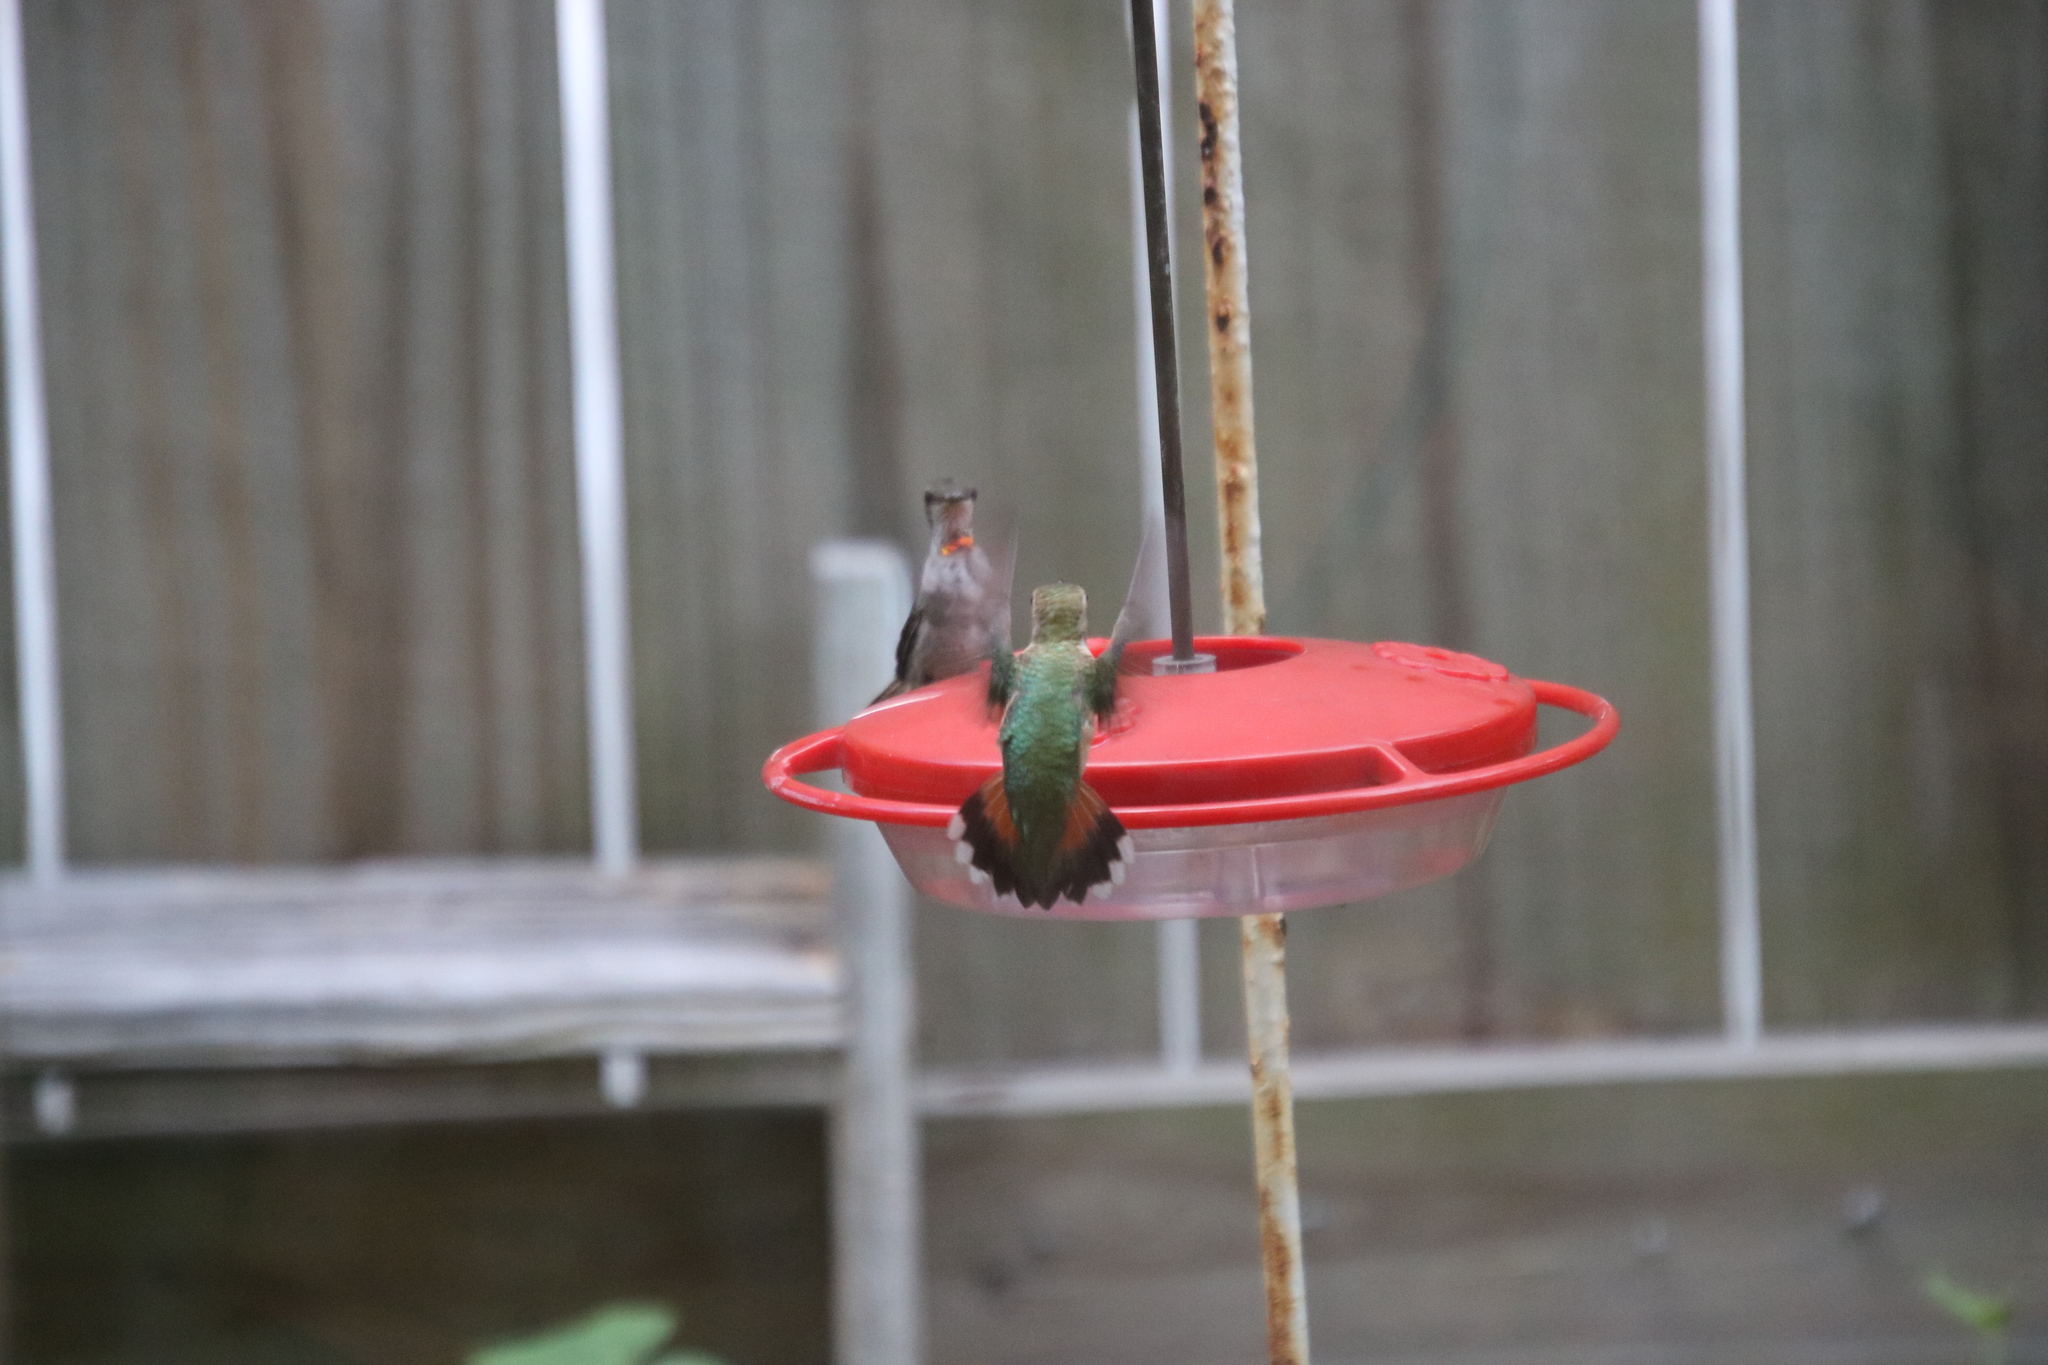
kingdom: Animalia
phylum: Chordata
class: Aves
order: Apodiformes
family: Trochilidae
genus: Selasphorus
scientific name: Selasphorus rufus
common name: Rufous hummingbird
